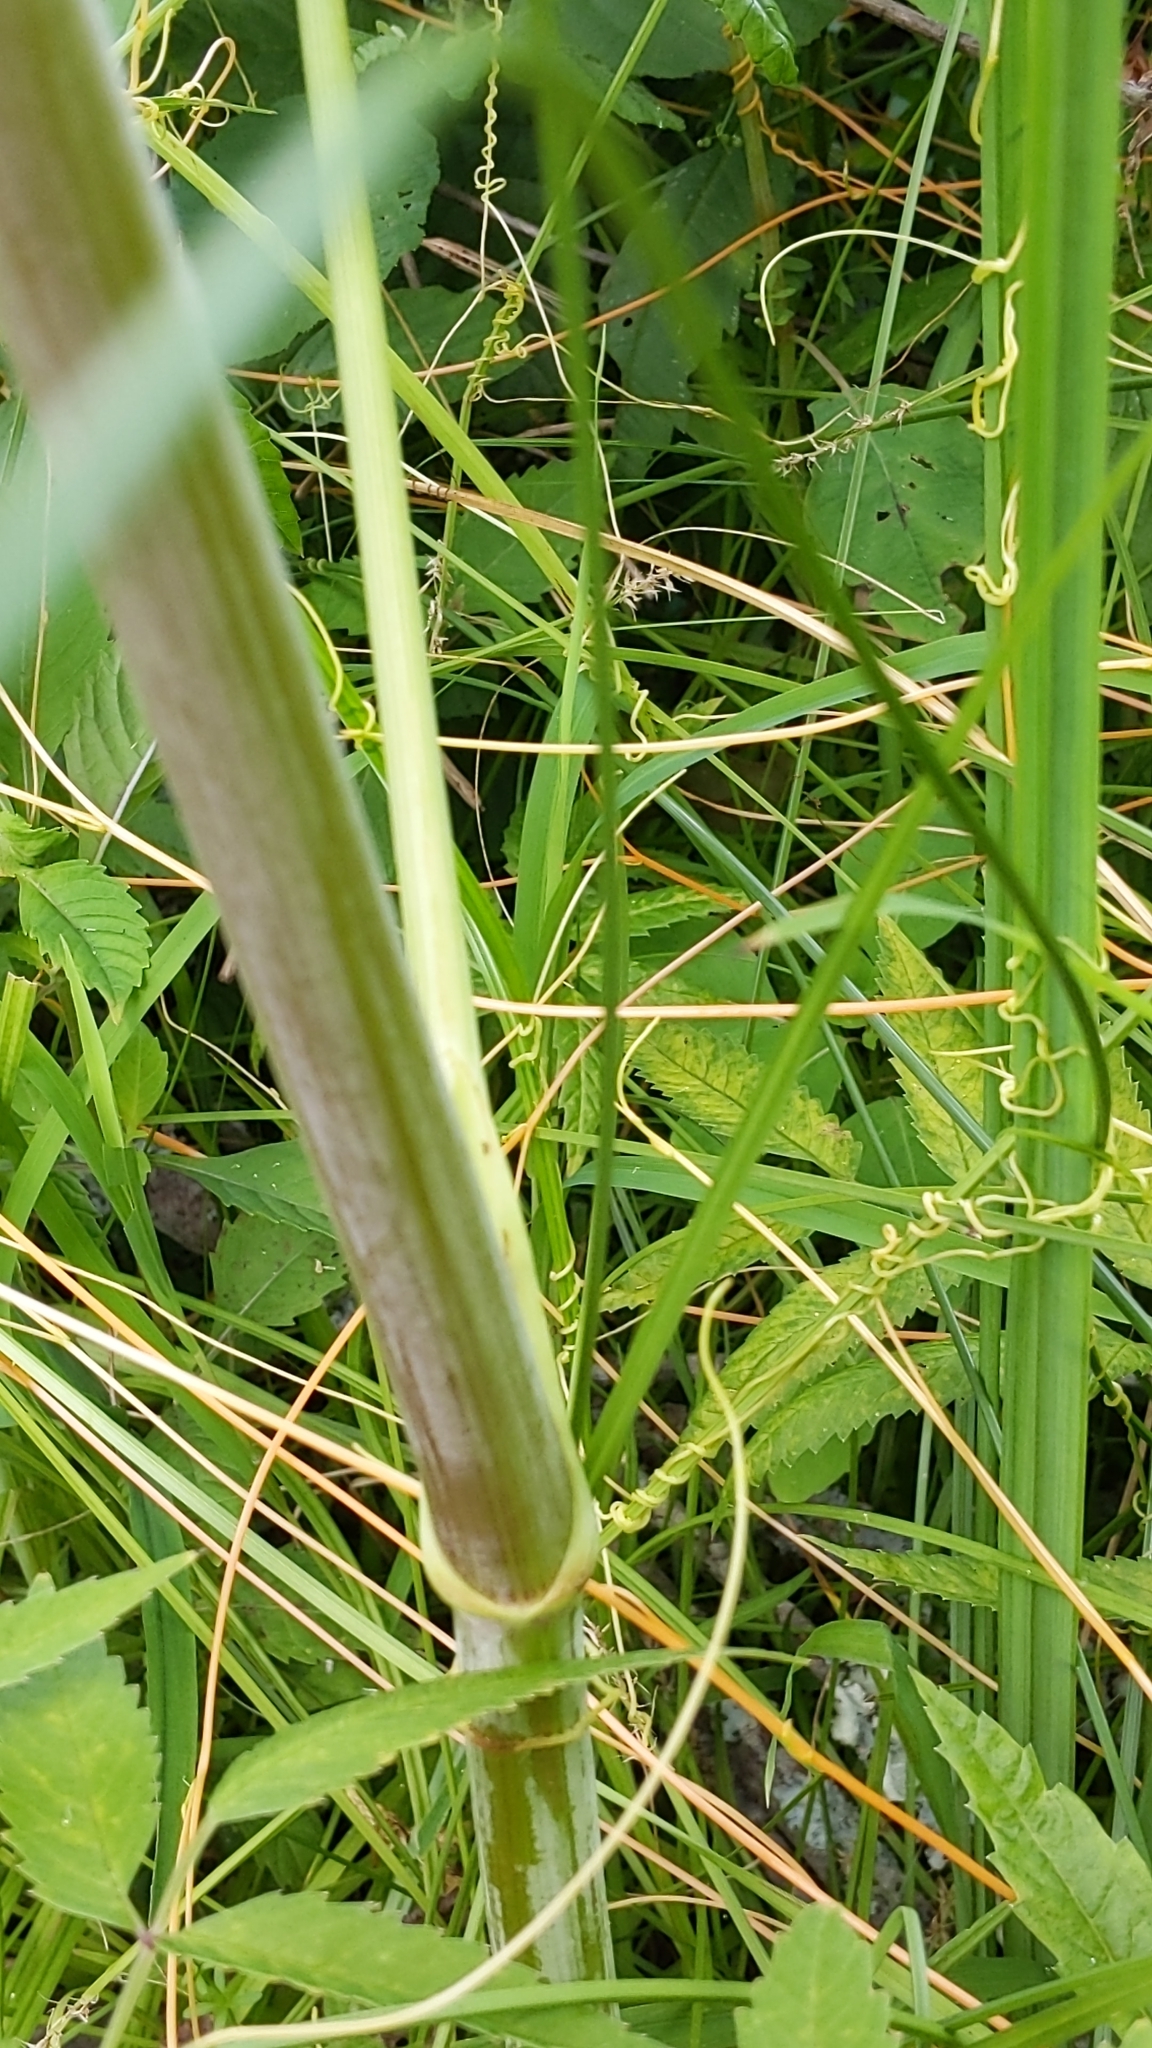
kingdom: Plantae
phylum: Tracheophyta
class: Magnoliopsida
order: Apiales
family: Apiaceae
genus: Cicuta
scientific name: Cicuta maculata
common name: Spotted cowbane
